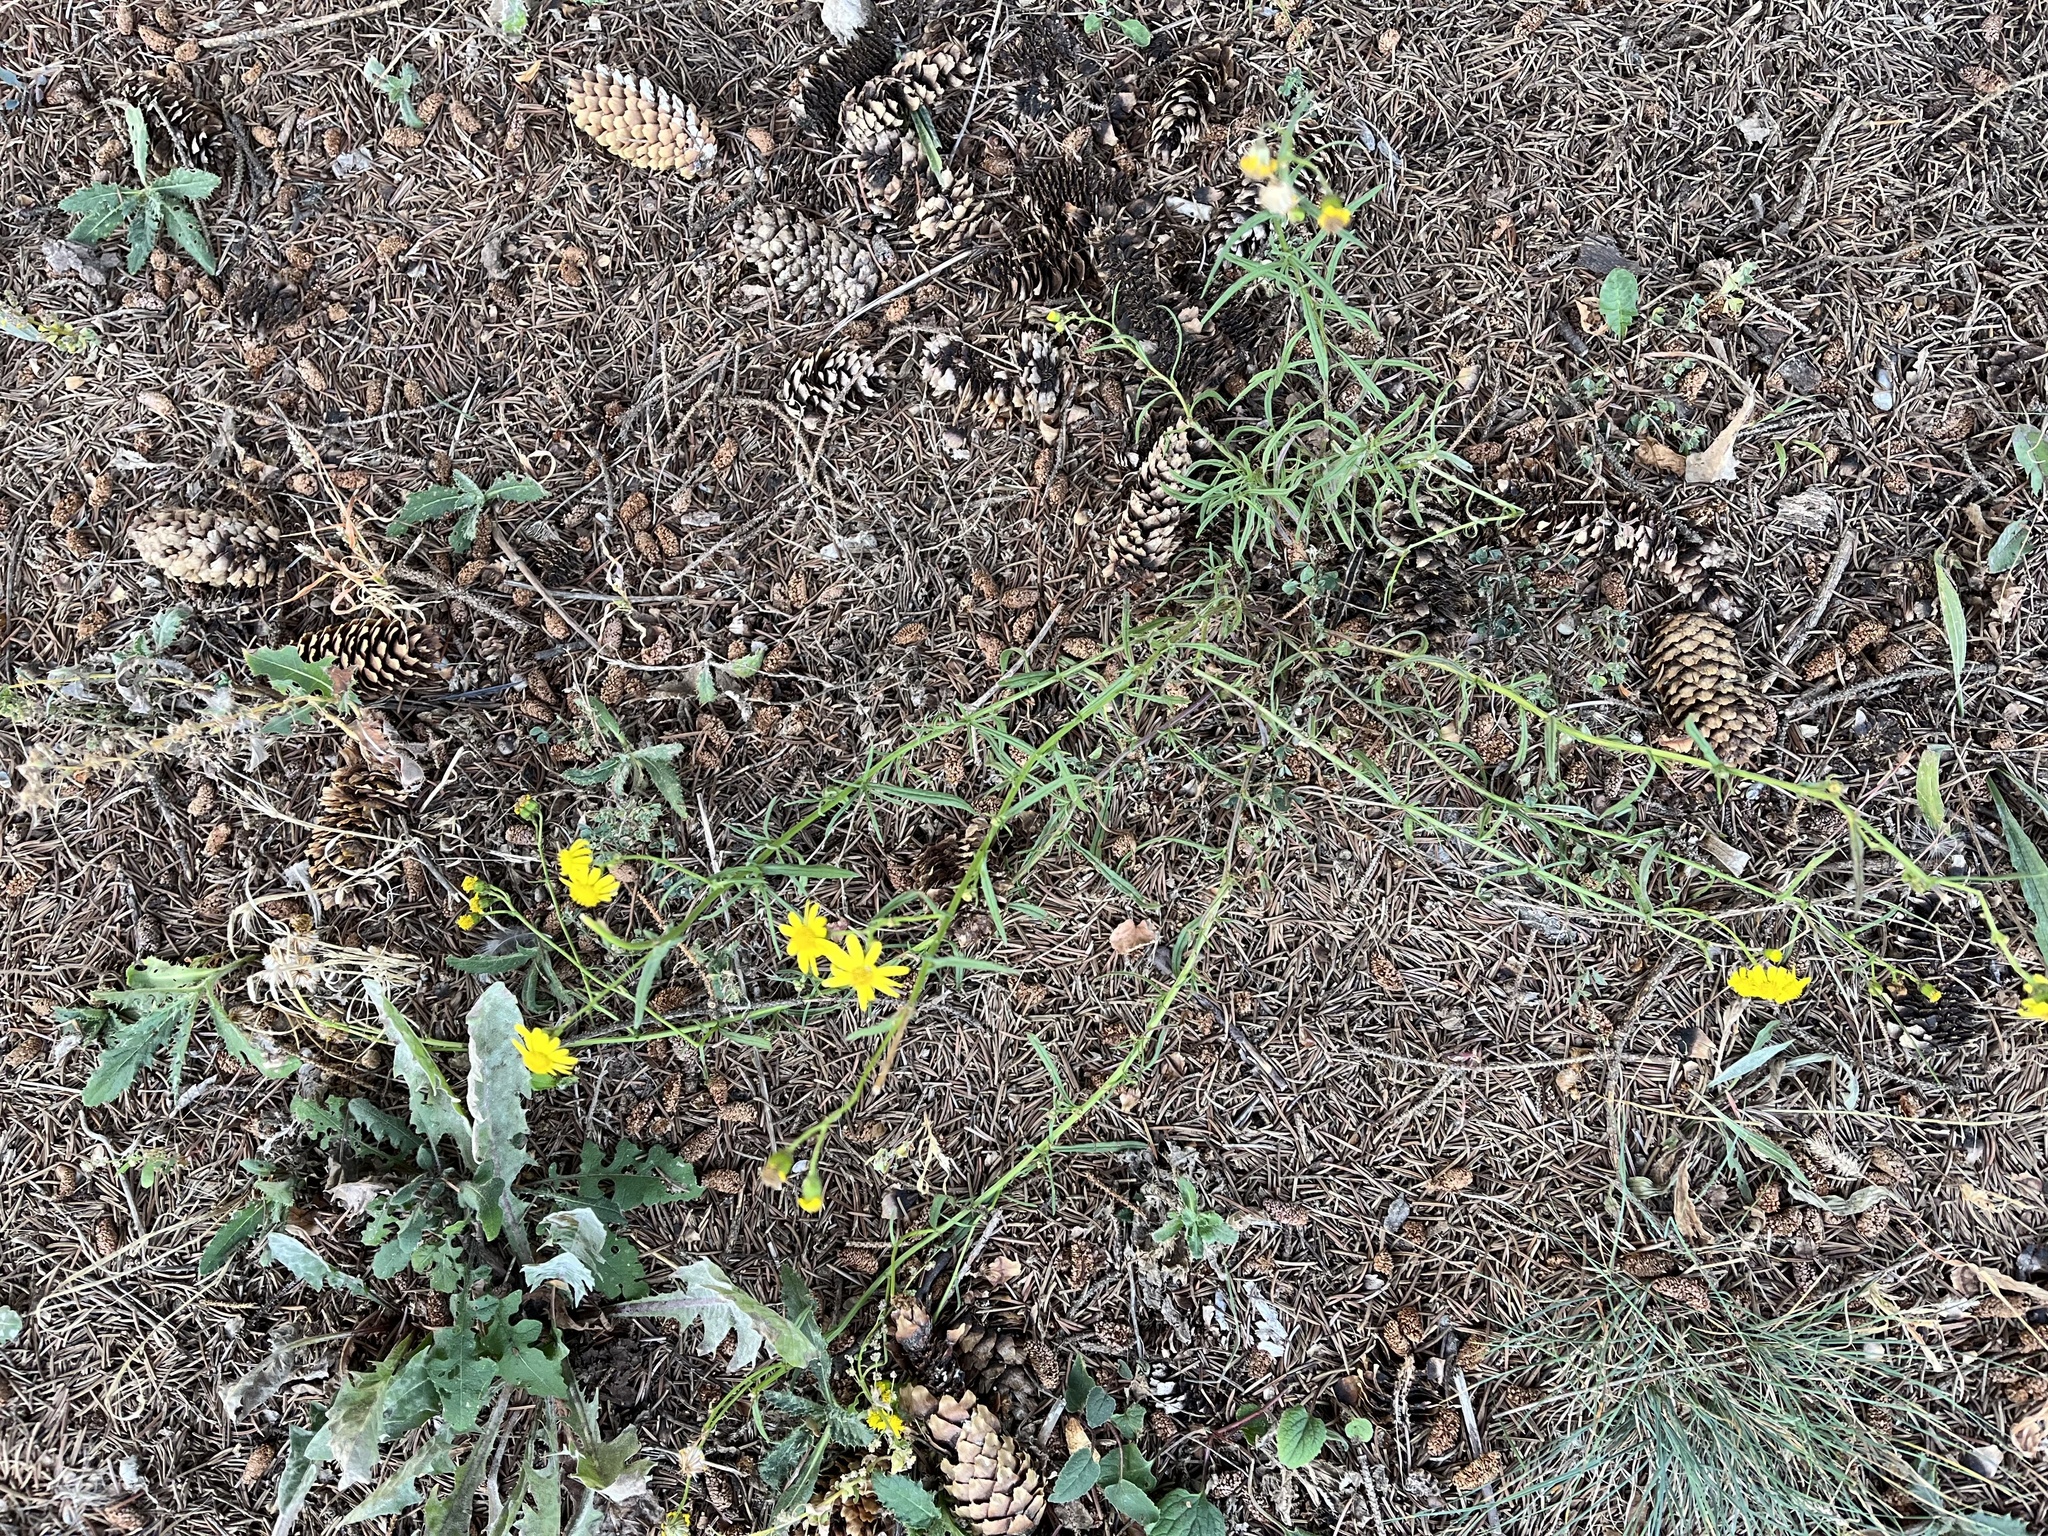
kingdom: Plantae
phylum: Tracheophyta
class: Magnoliopsida
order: Asterales
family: Asteraceae
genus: Senecio
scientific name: Senecio inaequidens
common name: Narrow-leaved ragwort
